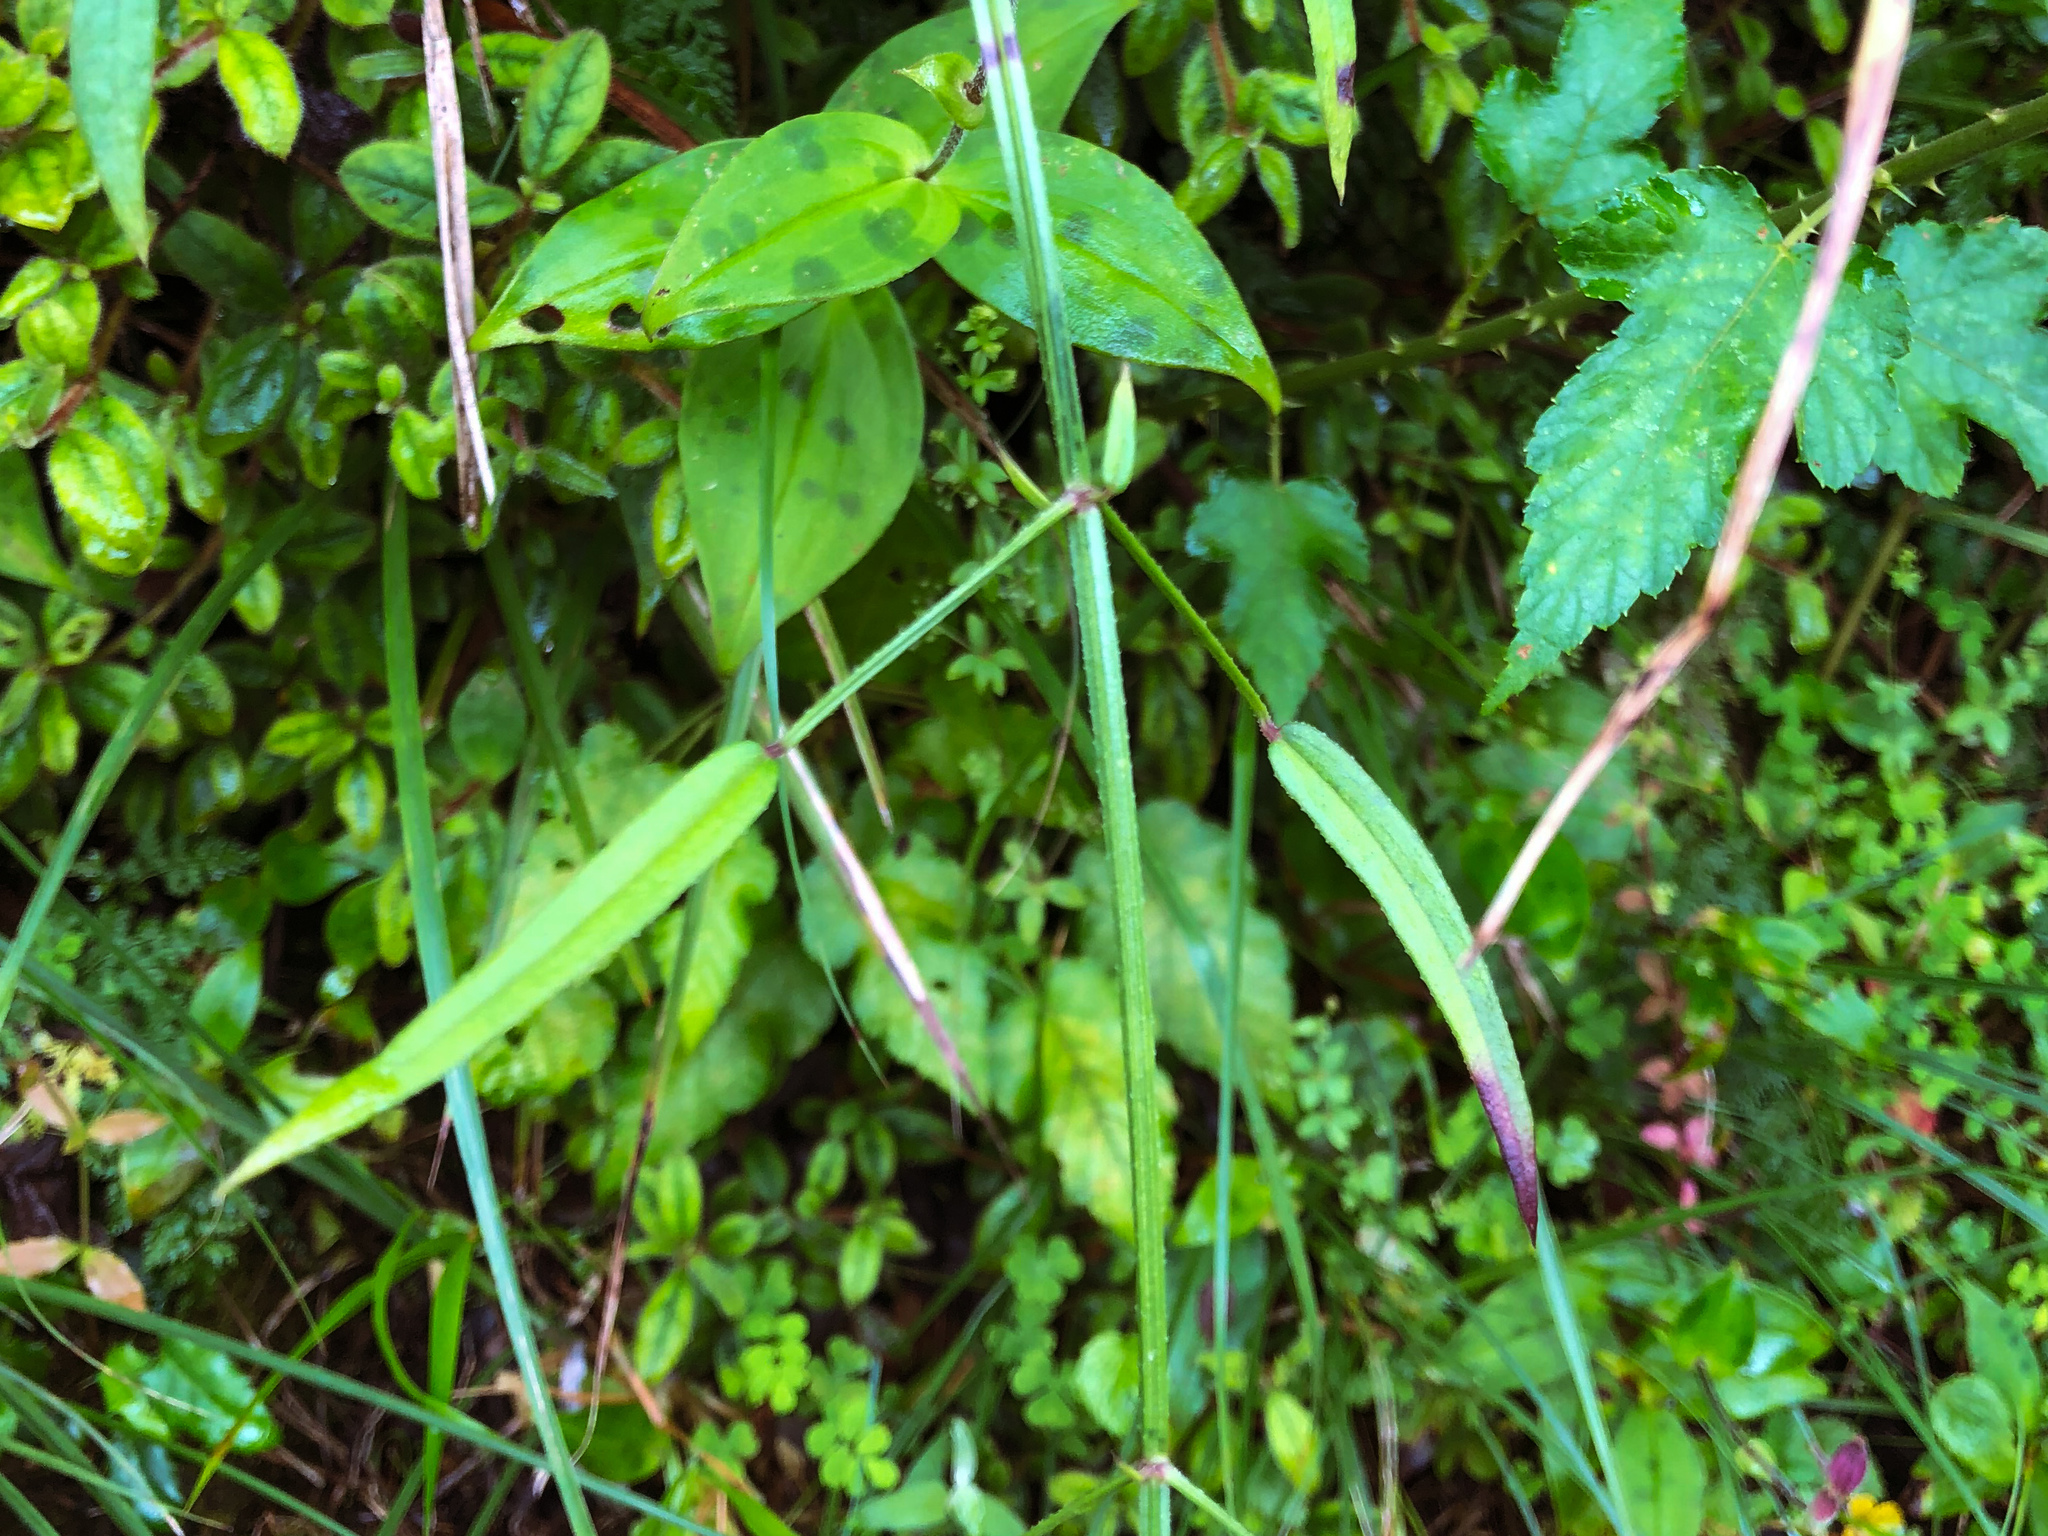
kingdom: Plantae
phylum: Tracheophyta
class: Magnoliopsida
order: Gentianales
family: Rubiaceae
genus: Rubia
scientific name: Rubia alata
